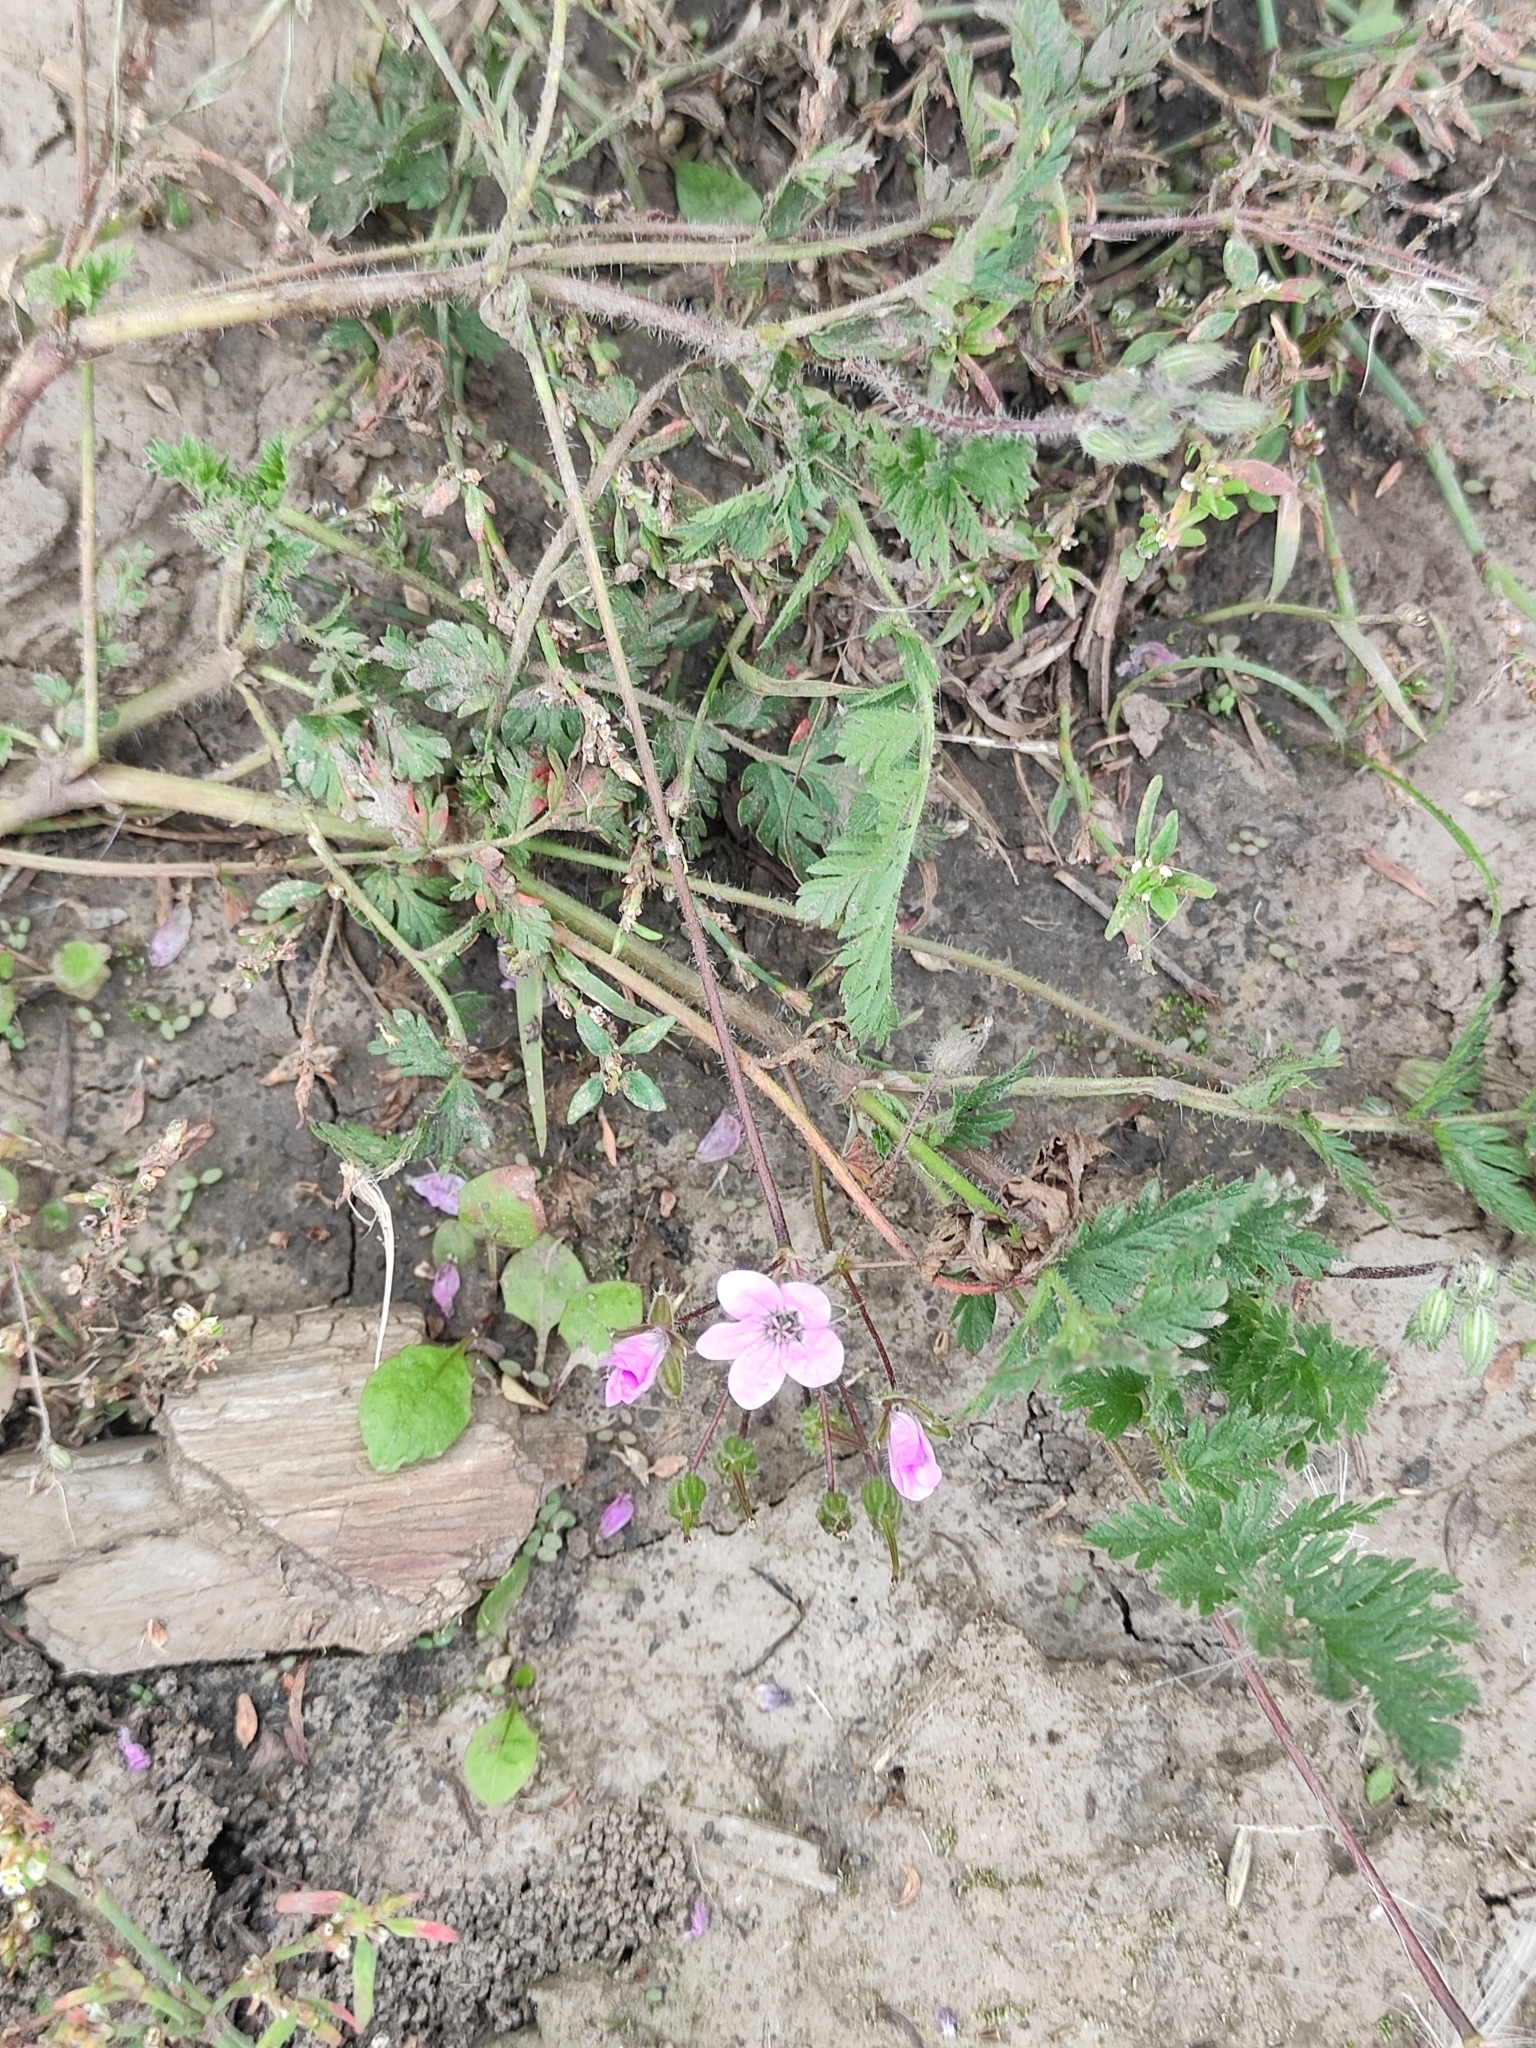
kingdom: Plantae
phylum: Tracheophyta
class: Magnoliopsida
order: Geraniales
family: Geraniaceae
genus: Erodium
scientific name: Erodium cicutarium
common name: Common stork's-bill
